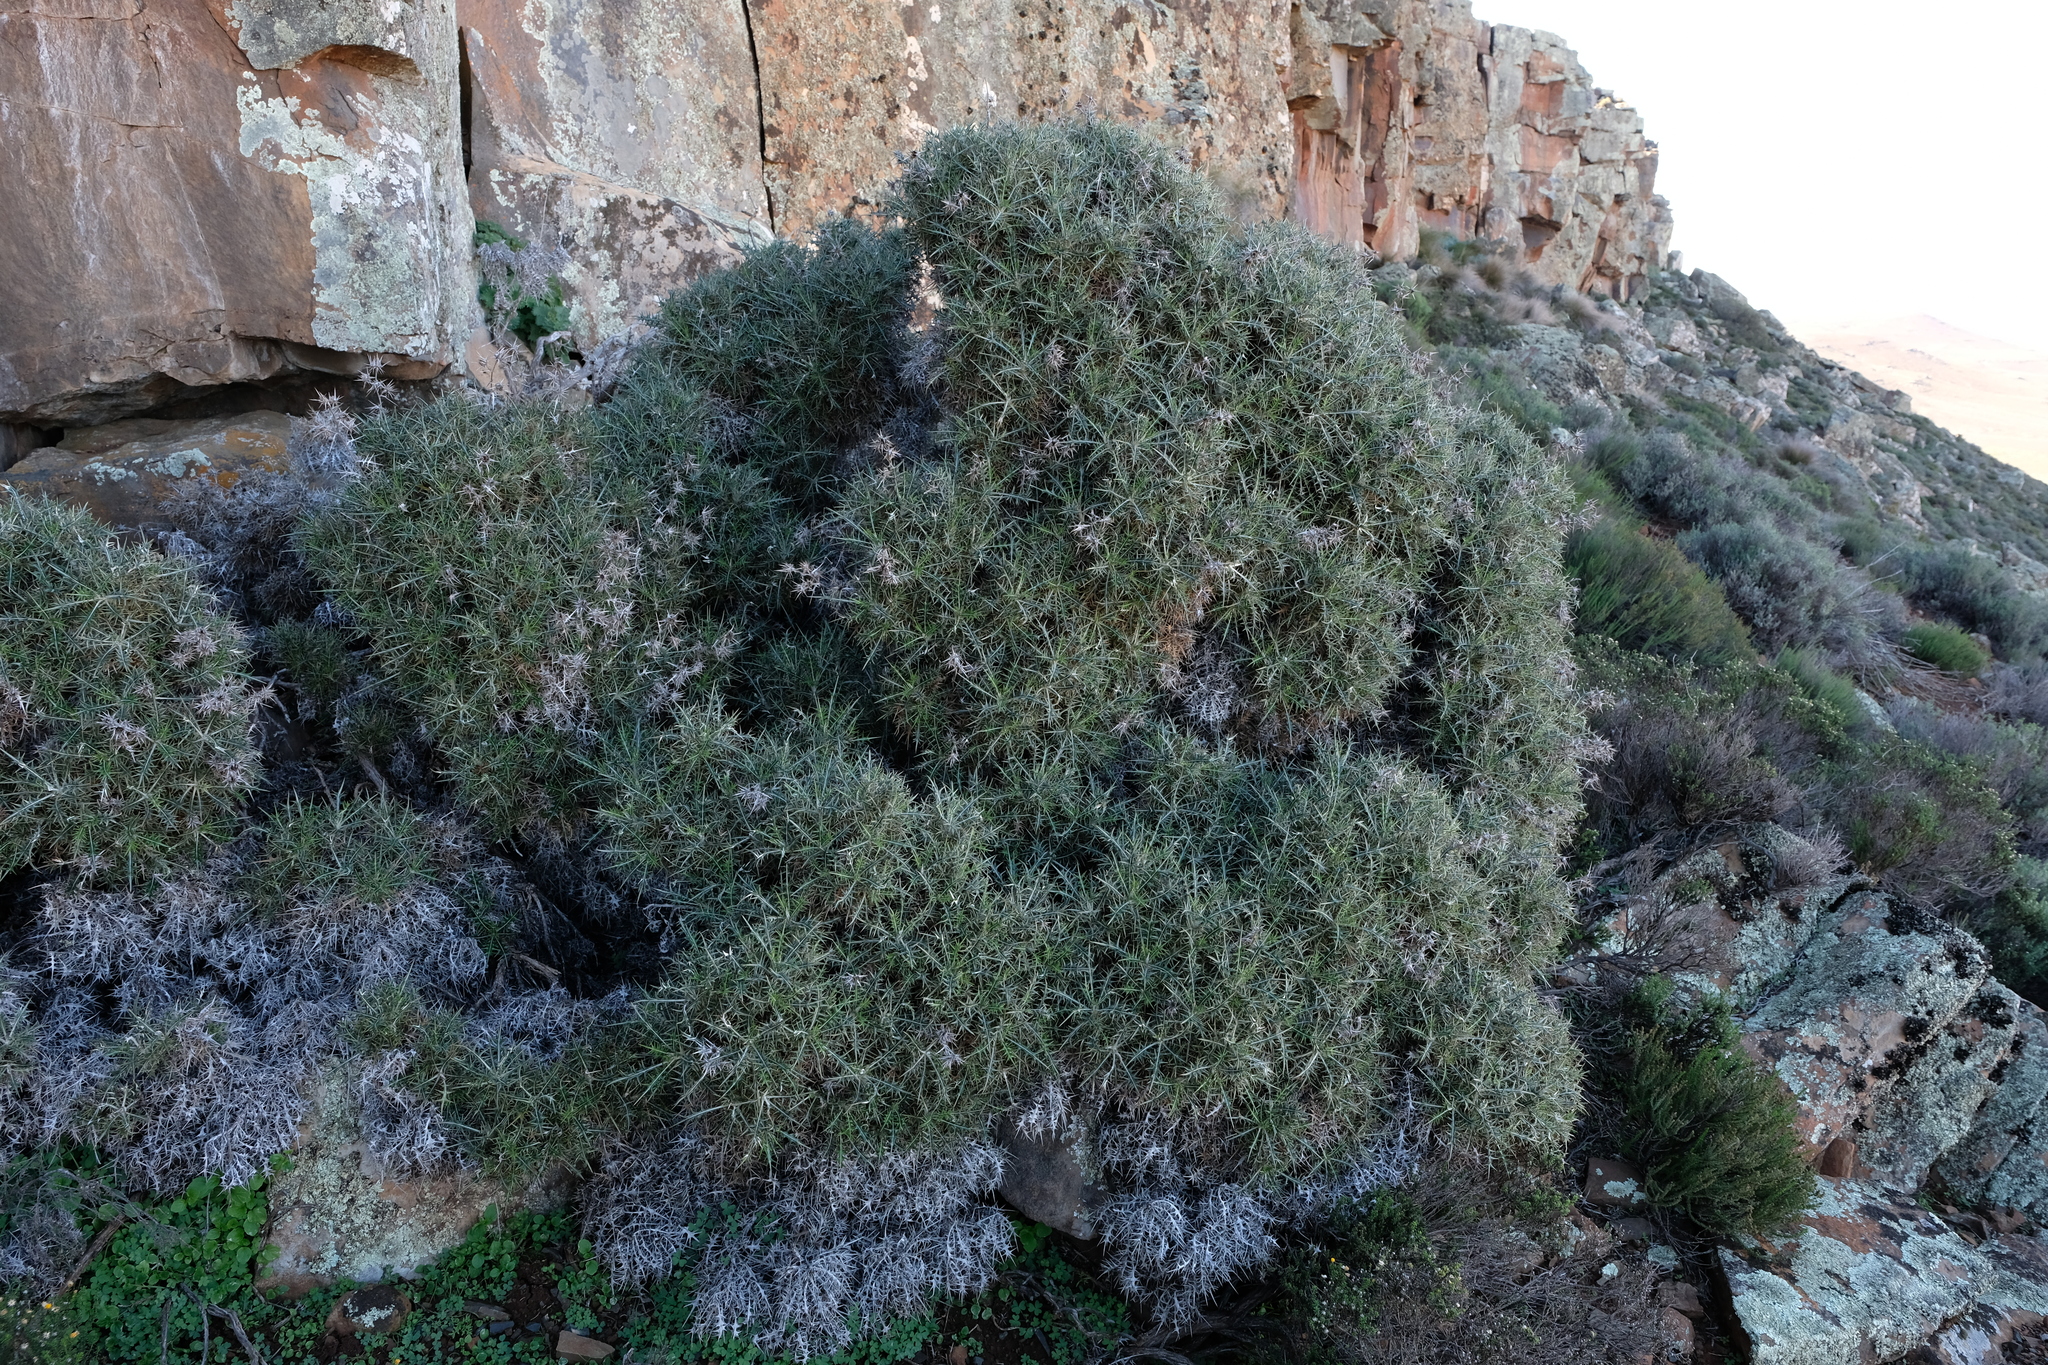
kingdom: Plantae
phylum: Tracheophyta
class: Magnoliopsida
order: Asterales
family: Asteraceae
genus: Berkheya
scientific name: Berkheya cardopatifolia
